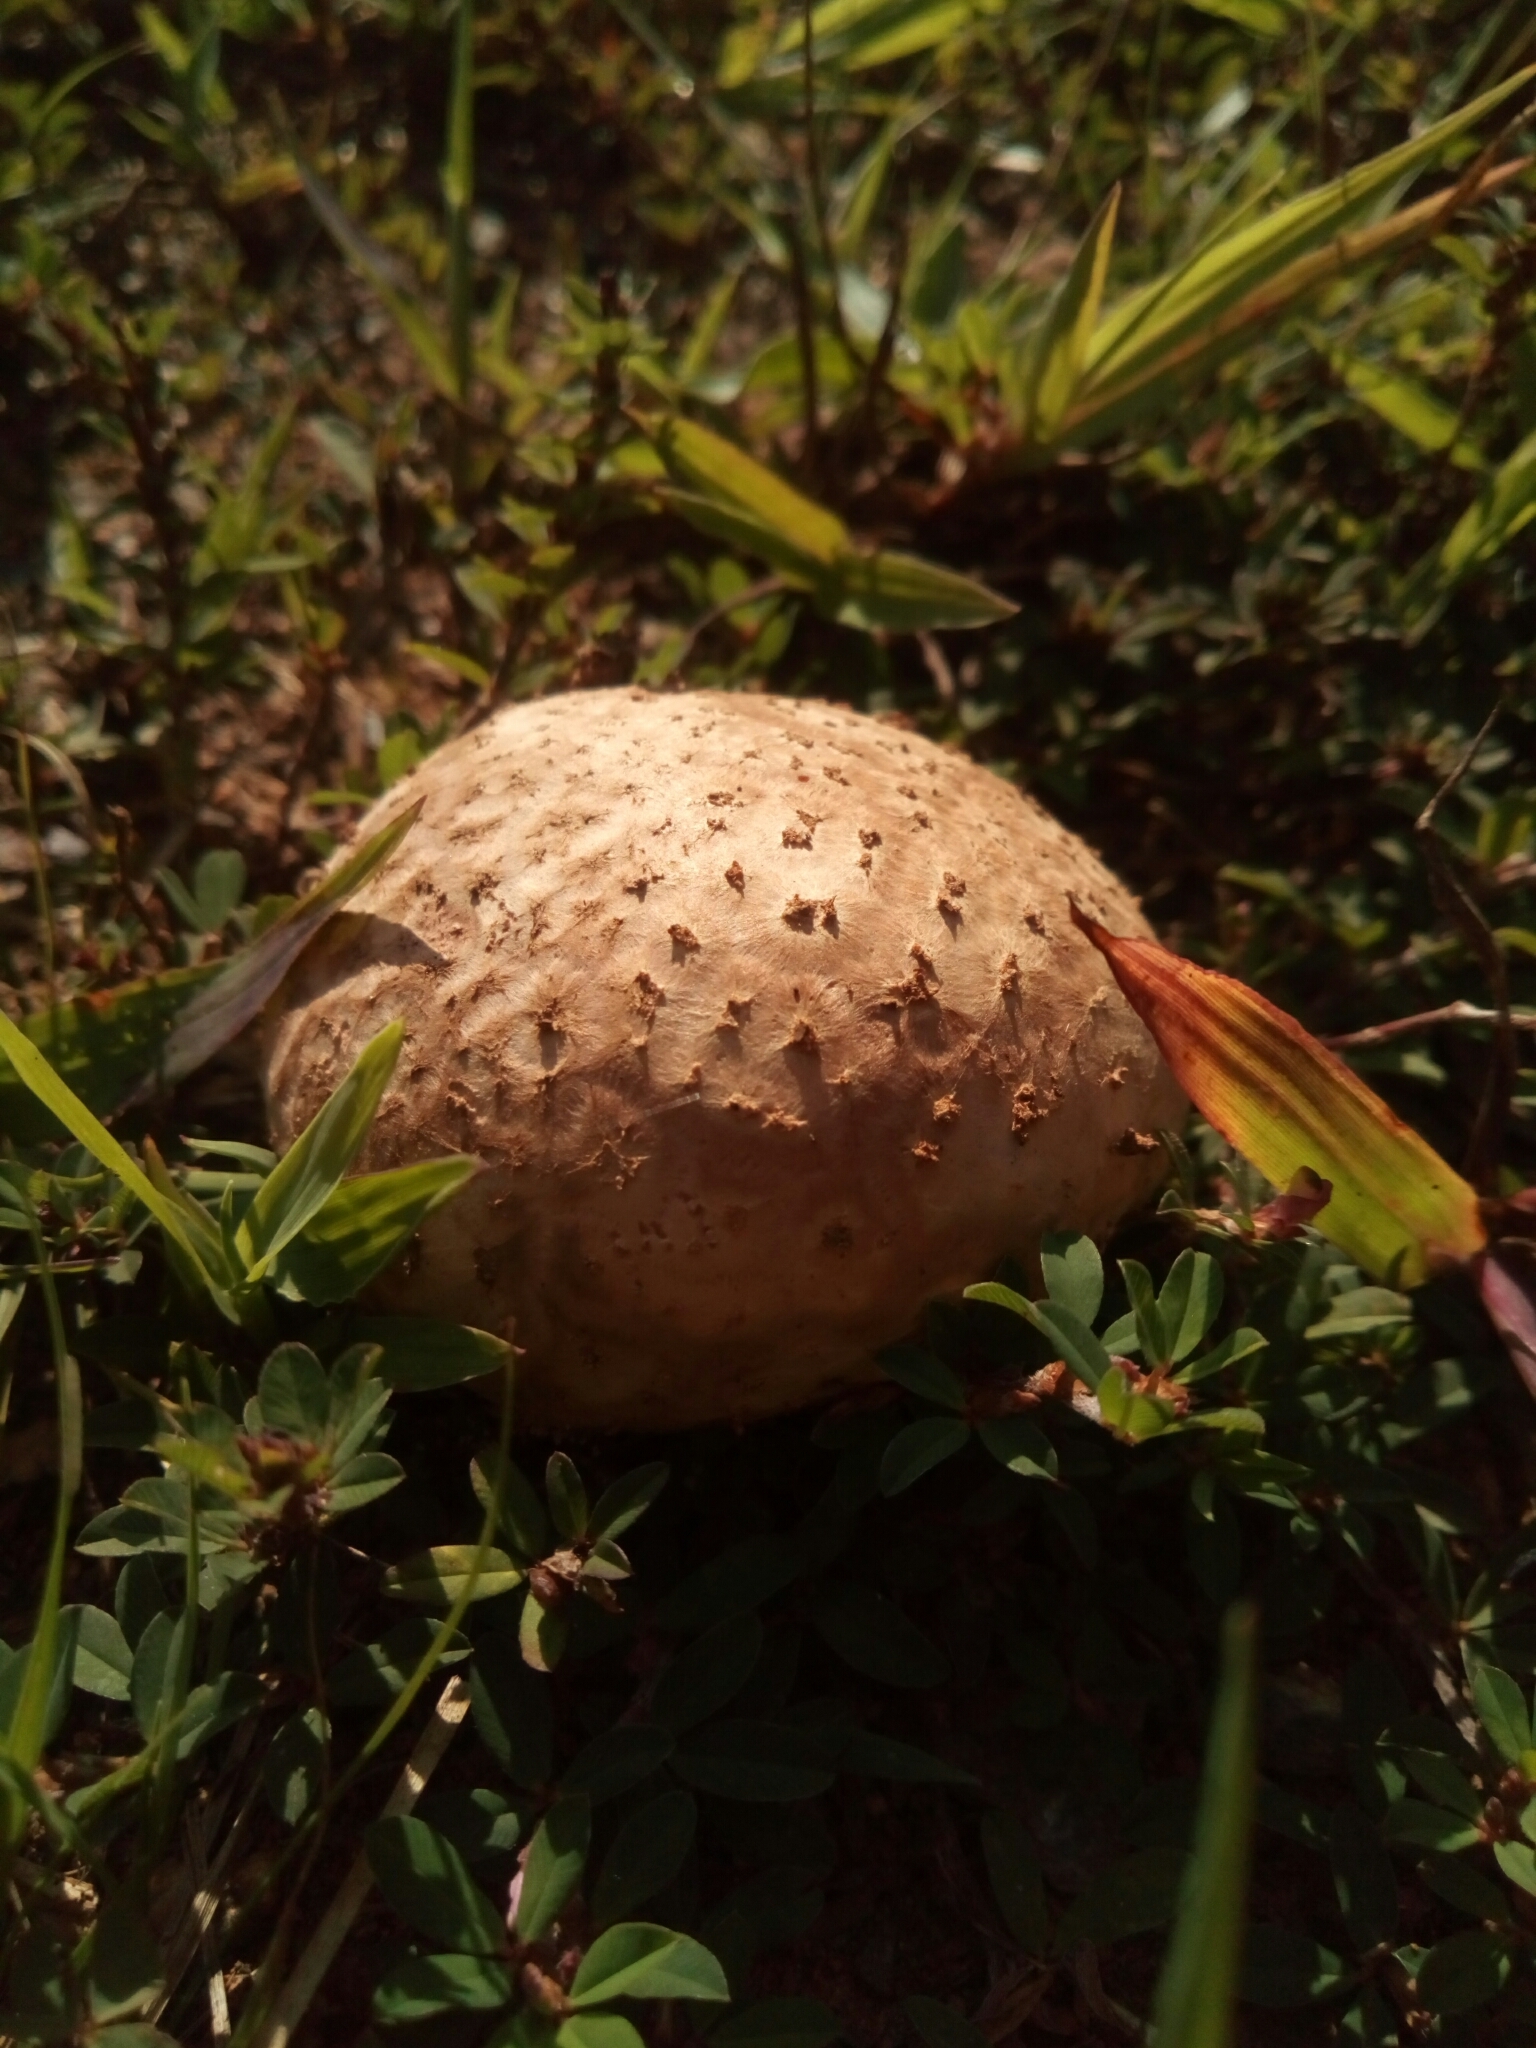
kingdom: Fungi
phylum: Basidiomycota
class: Agaricomycetes
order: Boletales
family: Sclerodermataceae
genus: Scleroderma
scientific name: Scleroderma citrinum
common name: Common earthball
